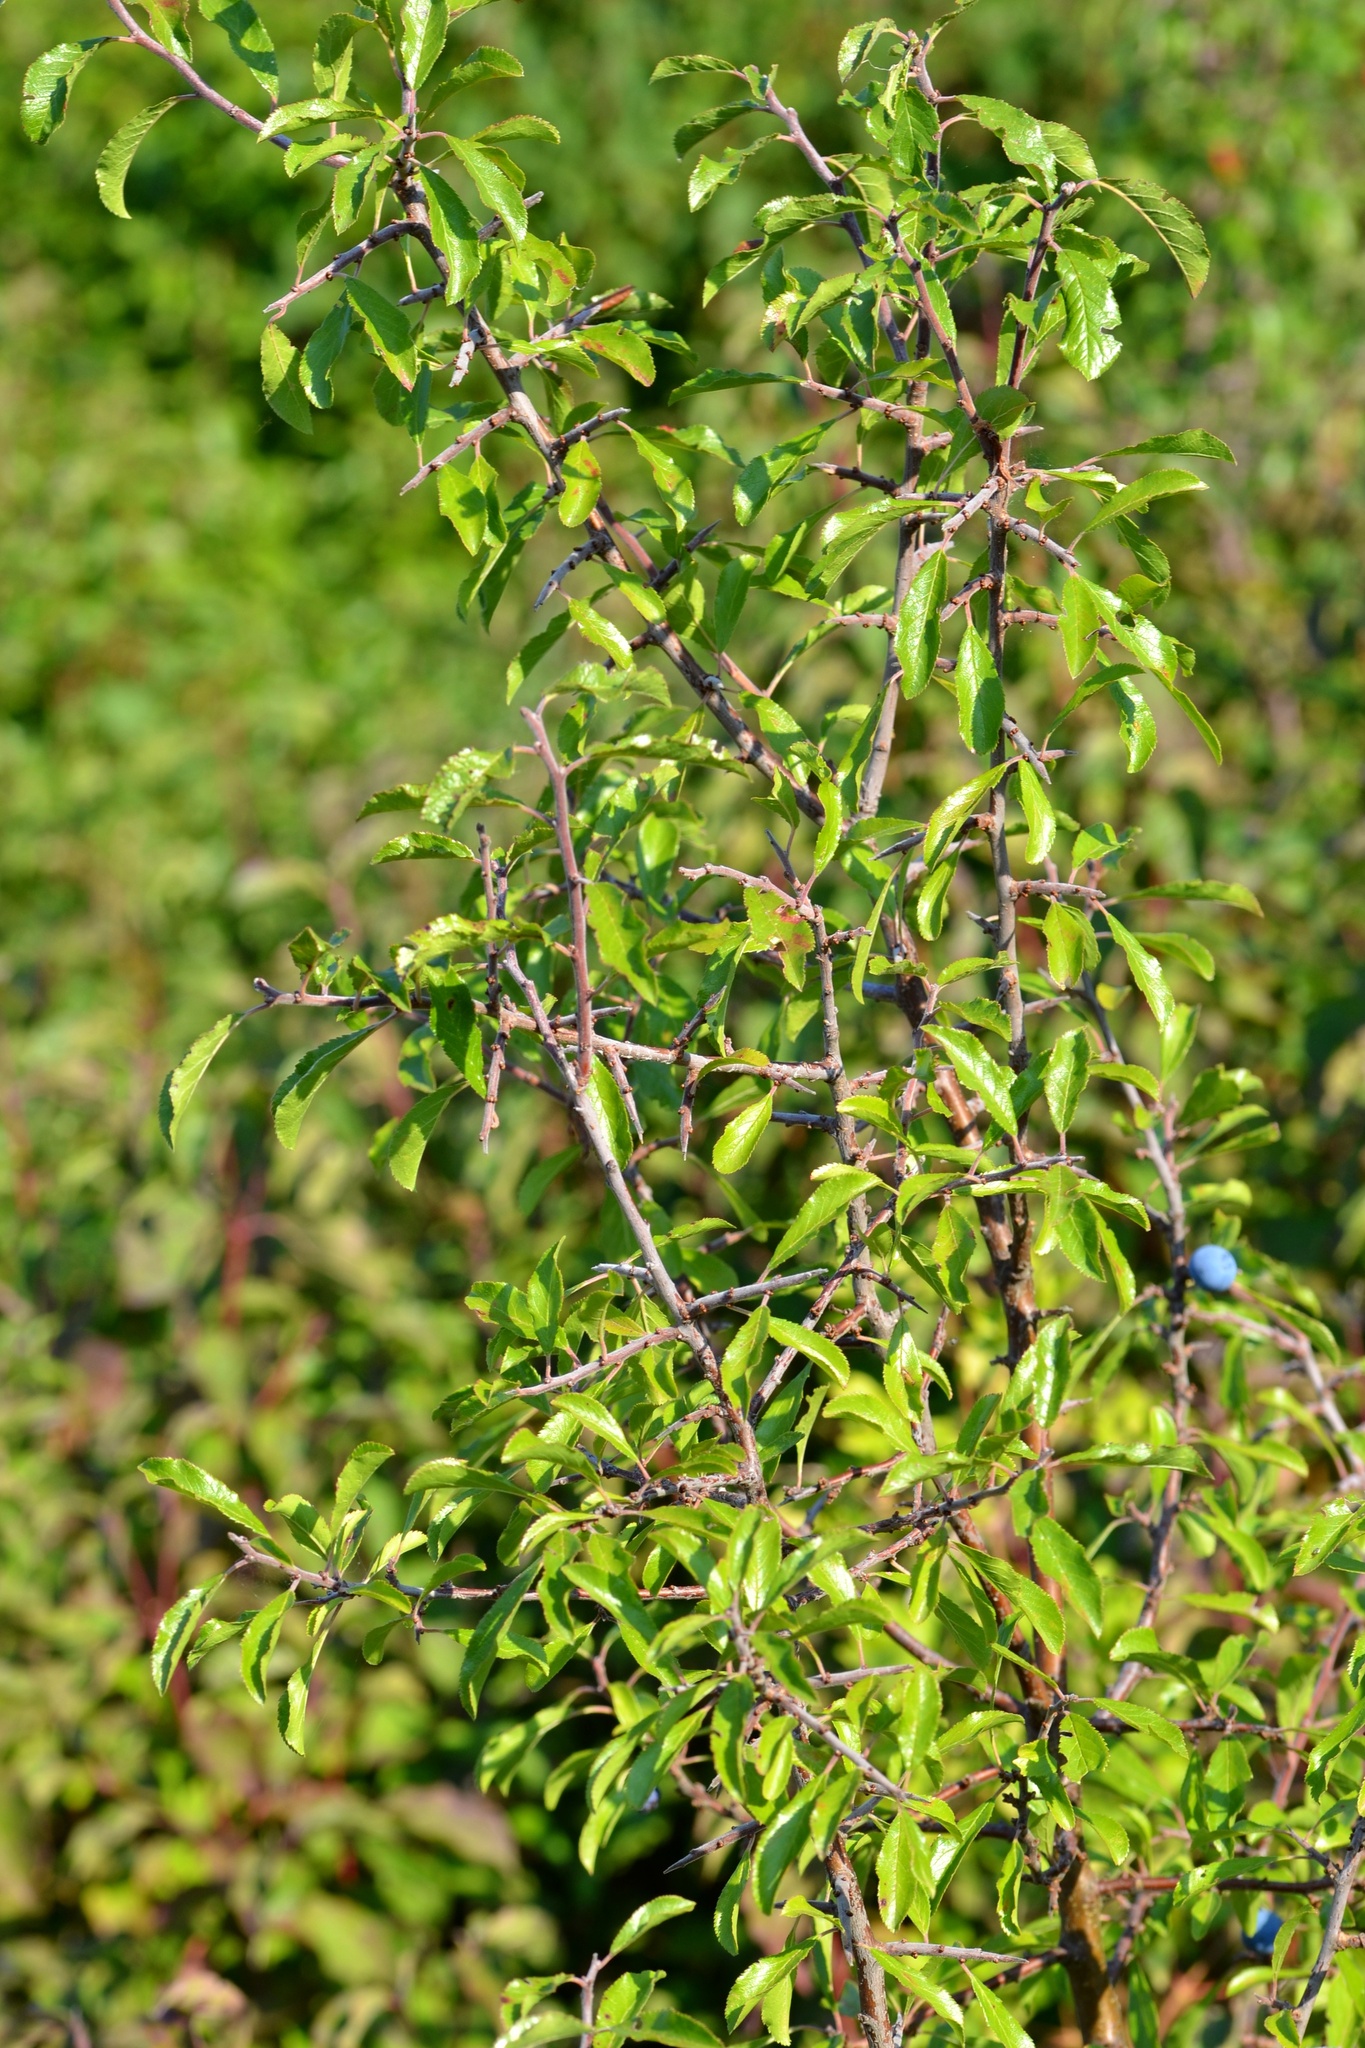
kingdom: Plantae
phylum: Tracheophyta
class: Magnoliopsida
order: Rosales
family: Rosaceae
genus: Prunus
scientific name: Prunus spinosa
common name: Blackthorn
